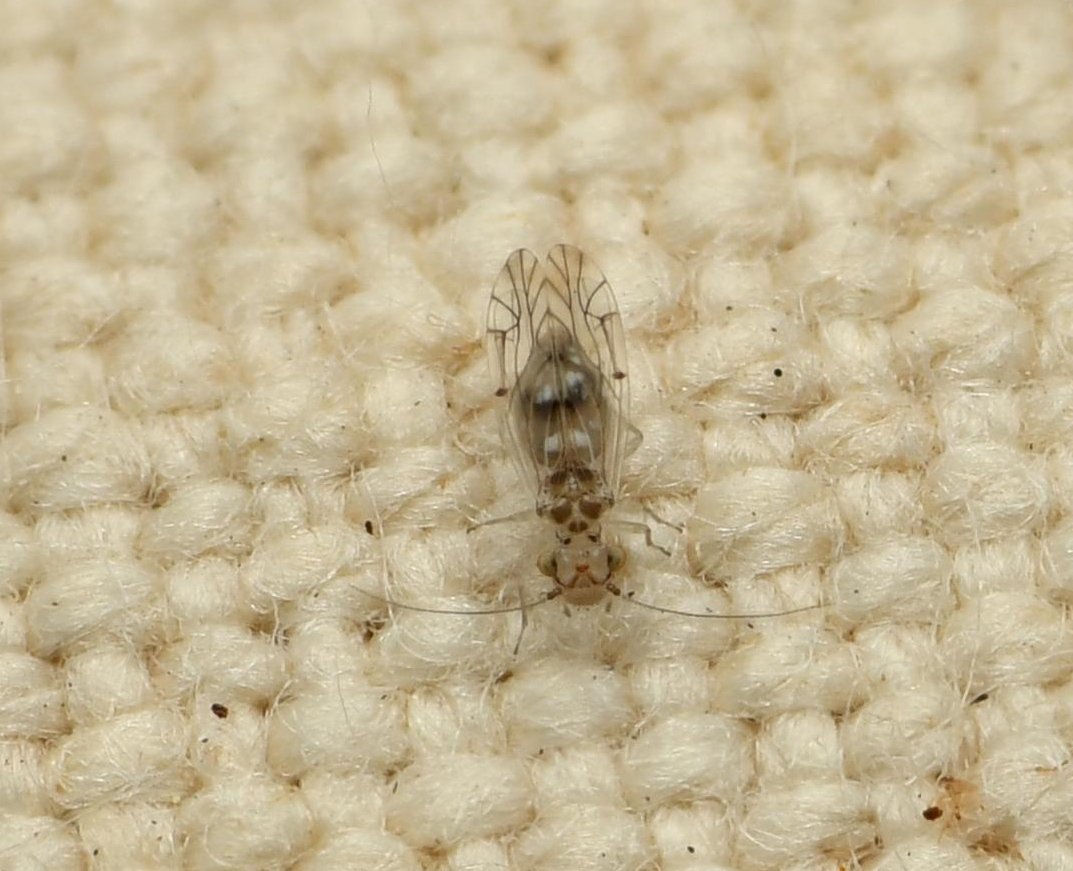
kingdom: Animalia
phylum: Arthropoda
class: Insecta
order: Psocodea
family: Lachesillidae
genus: Lachesilla
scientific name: Lachesilla floridana
